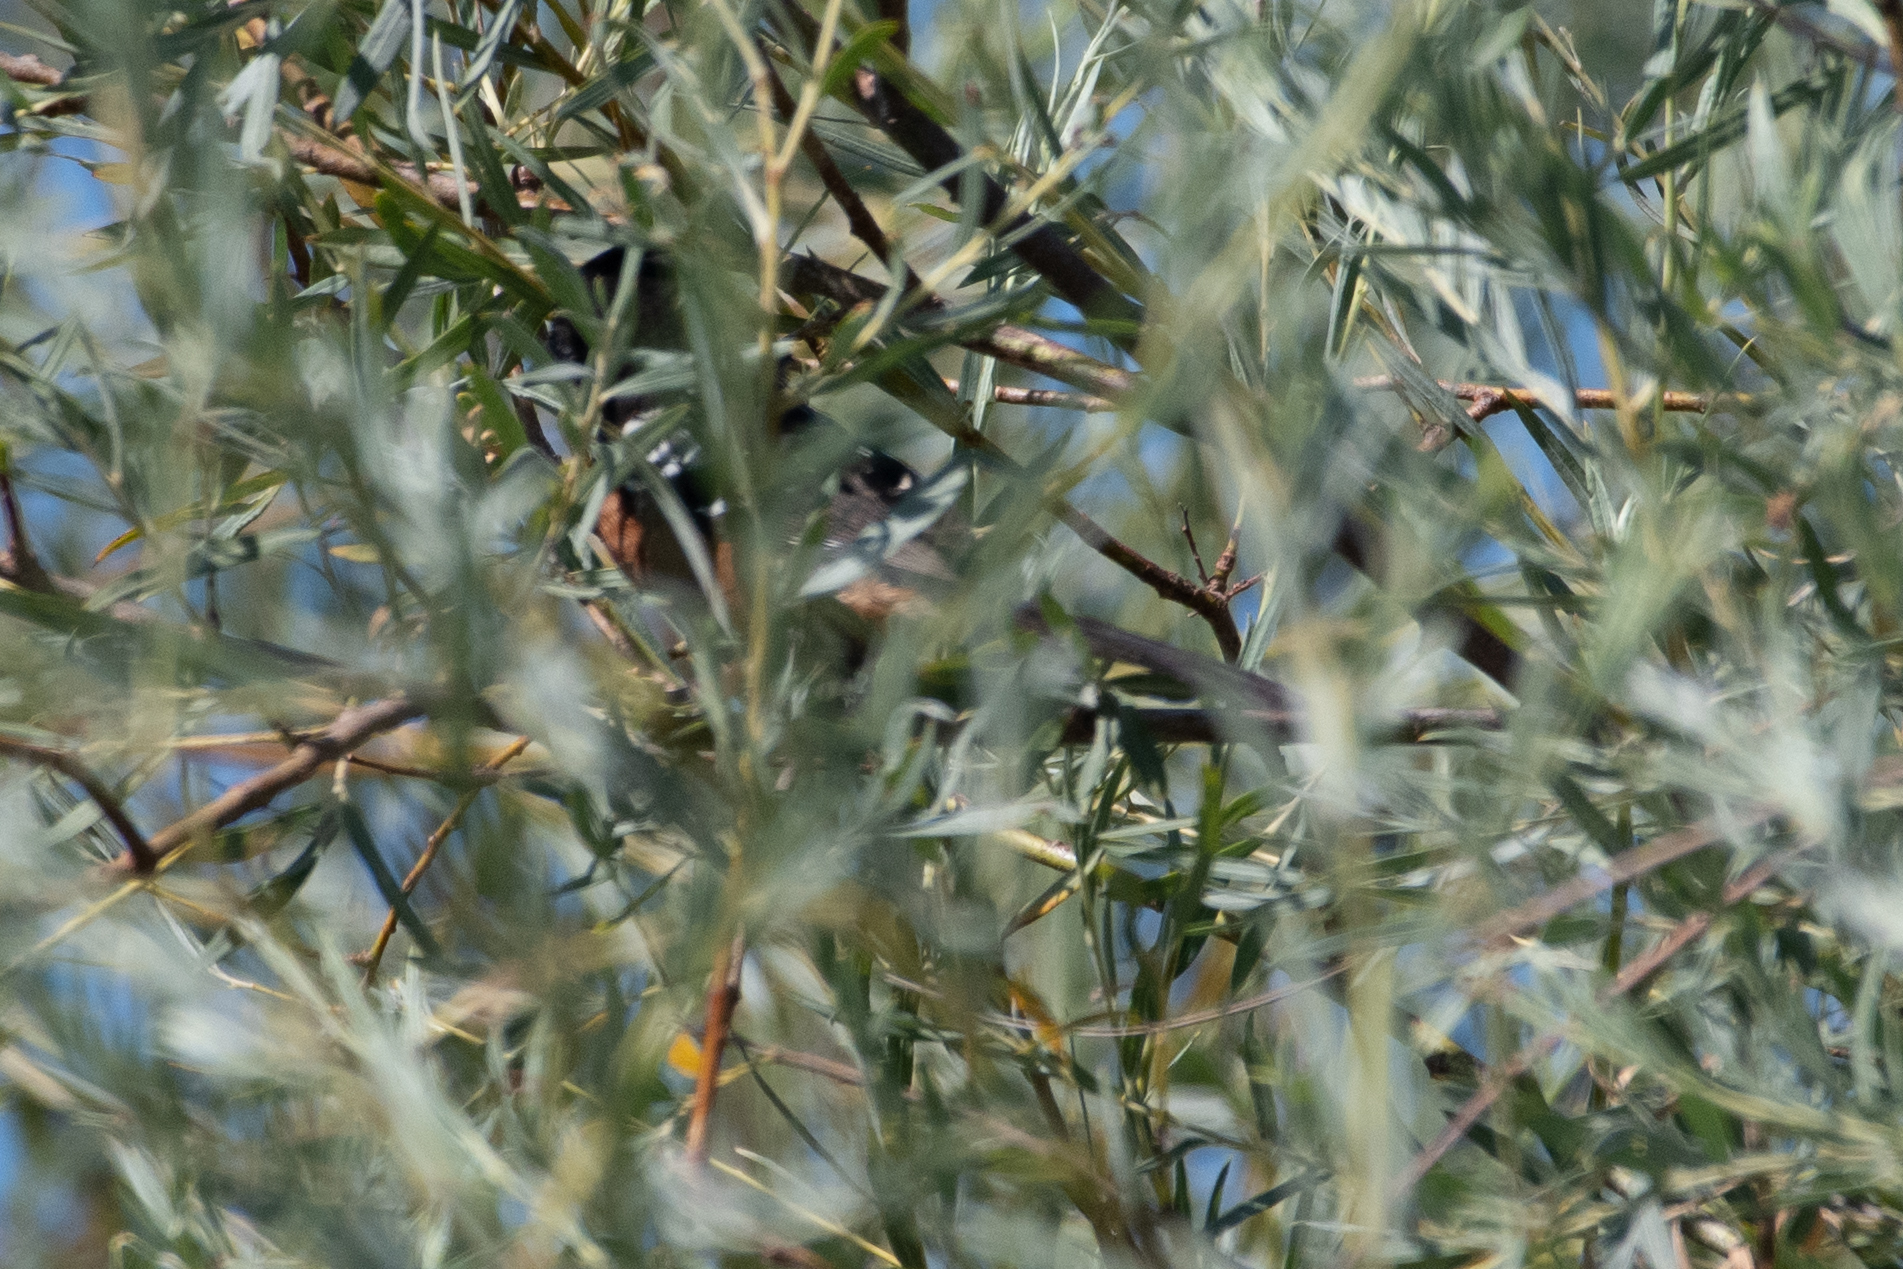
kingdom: Animalia
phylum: Chordata
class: Aves
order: Passeriformes
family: Passerellidae
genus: Pipilo
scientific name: Pipilo maculatus
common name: Spotted towhee
